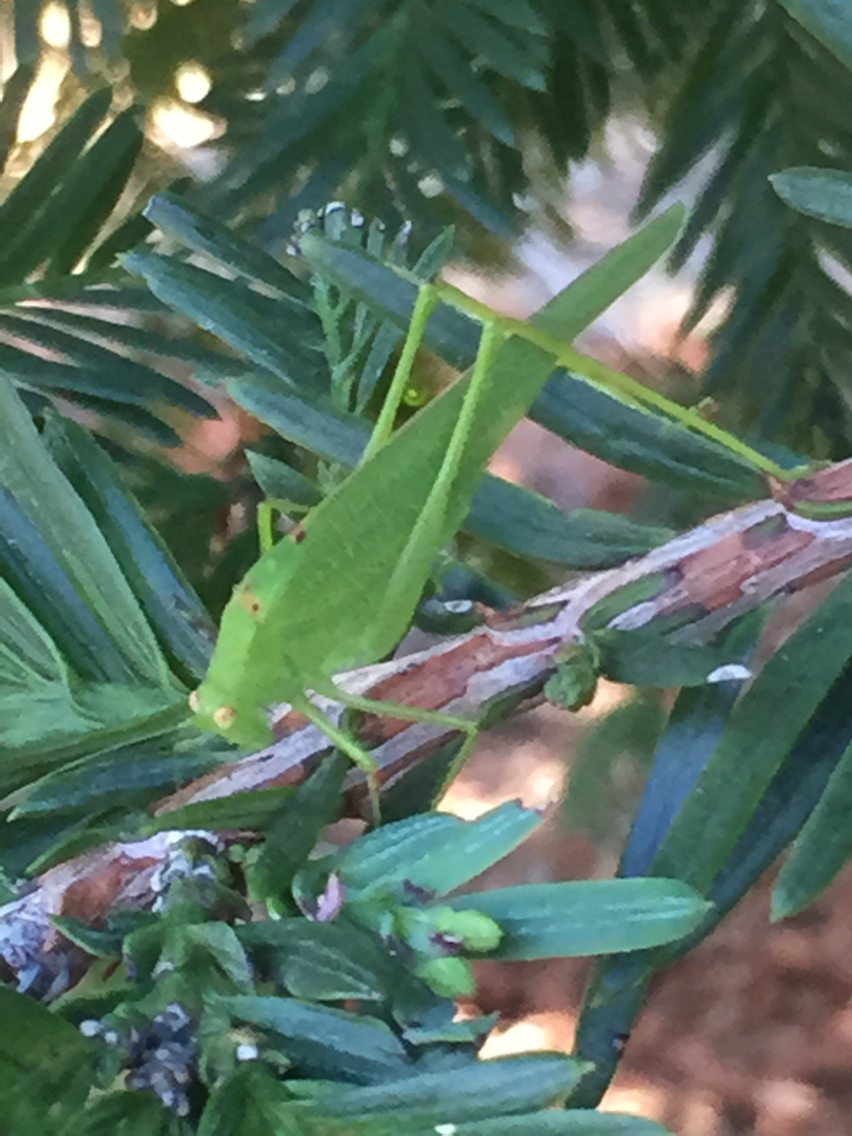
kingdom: Animalia
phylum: Arthropoda
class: Insecta
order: Orthoptera
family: Tettigoniidae
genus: Phaneroptera
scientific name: Phaneroptera nana
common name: Southern sickle bush-cricket
